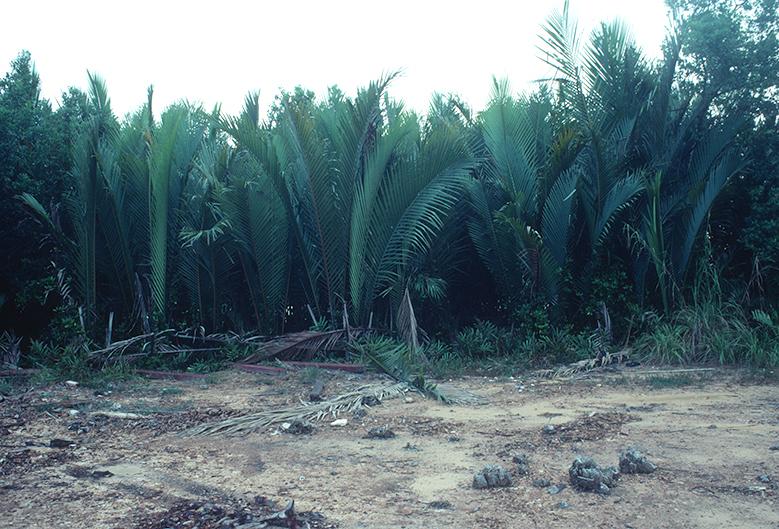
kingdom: Plantae
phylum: Tracheophyta
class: Liliopsida
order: Arecales
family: Arecaceae
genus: Nypa
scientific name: Nypa fruticans
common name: Mangrove palm
